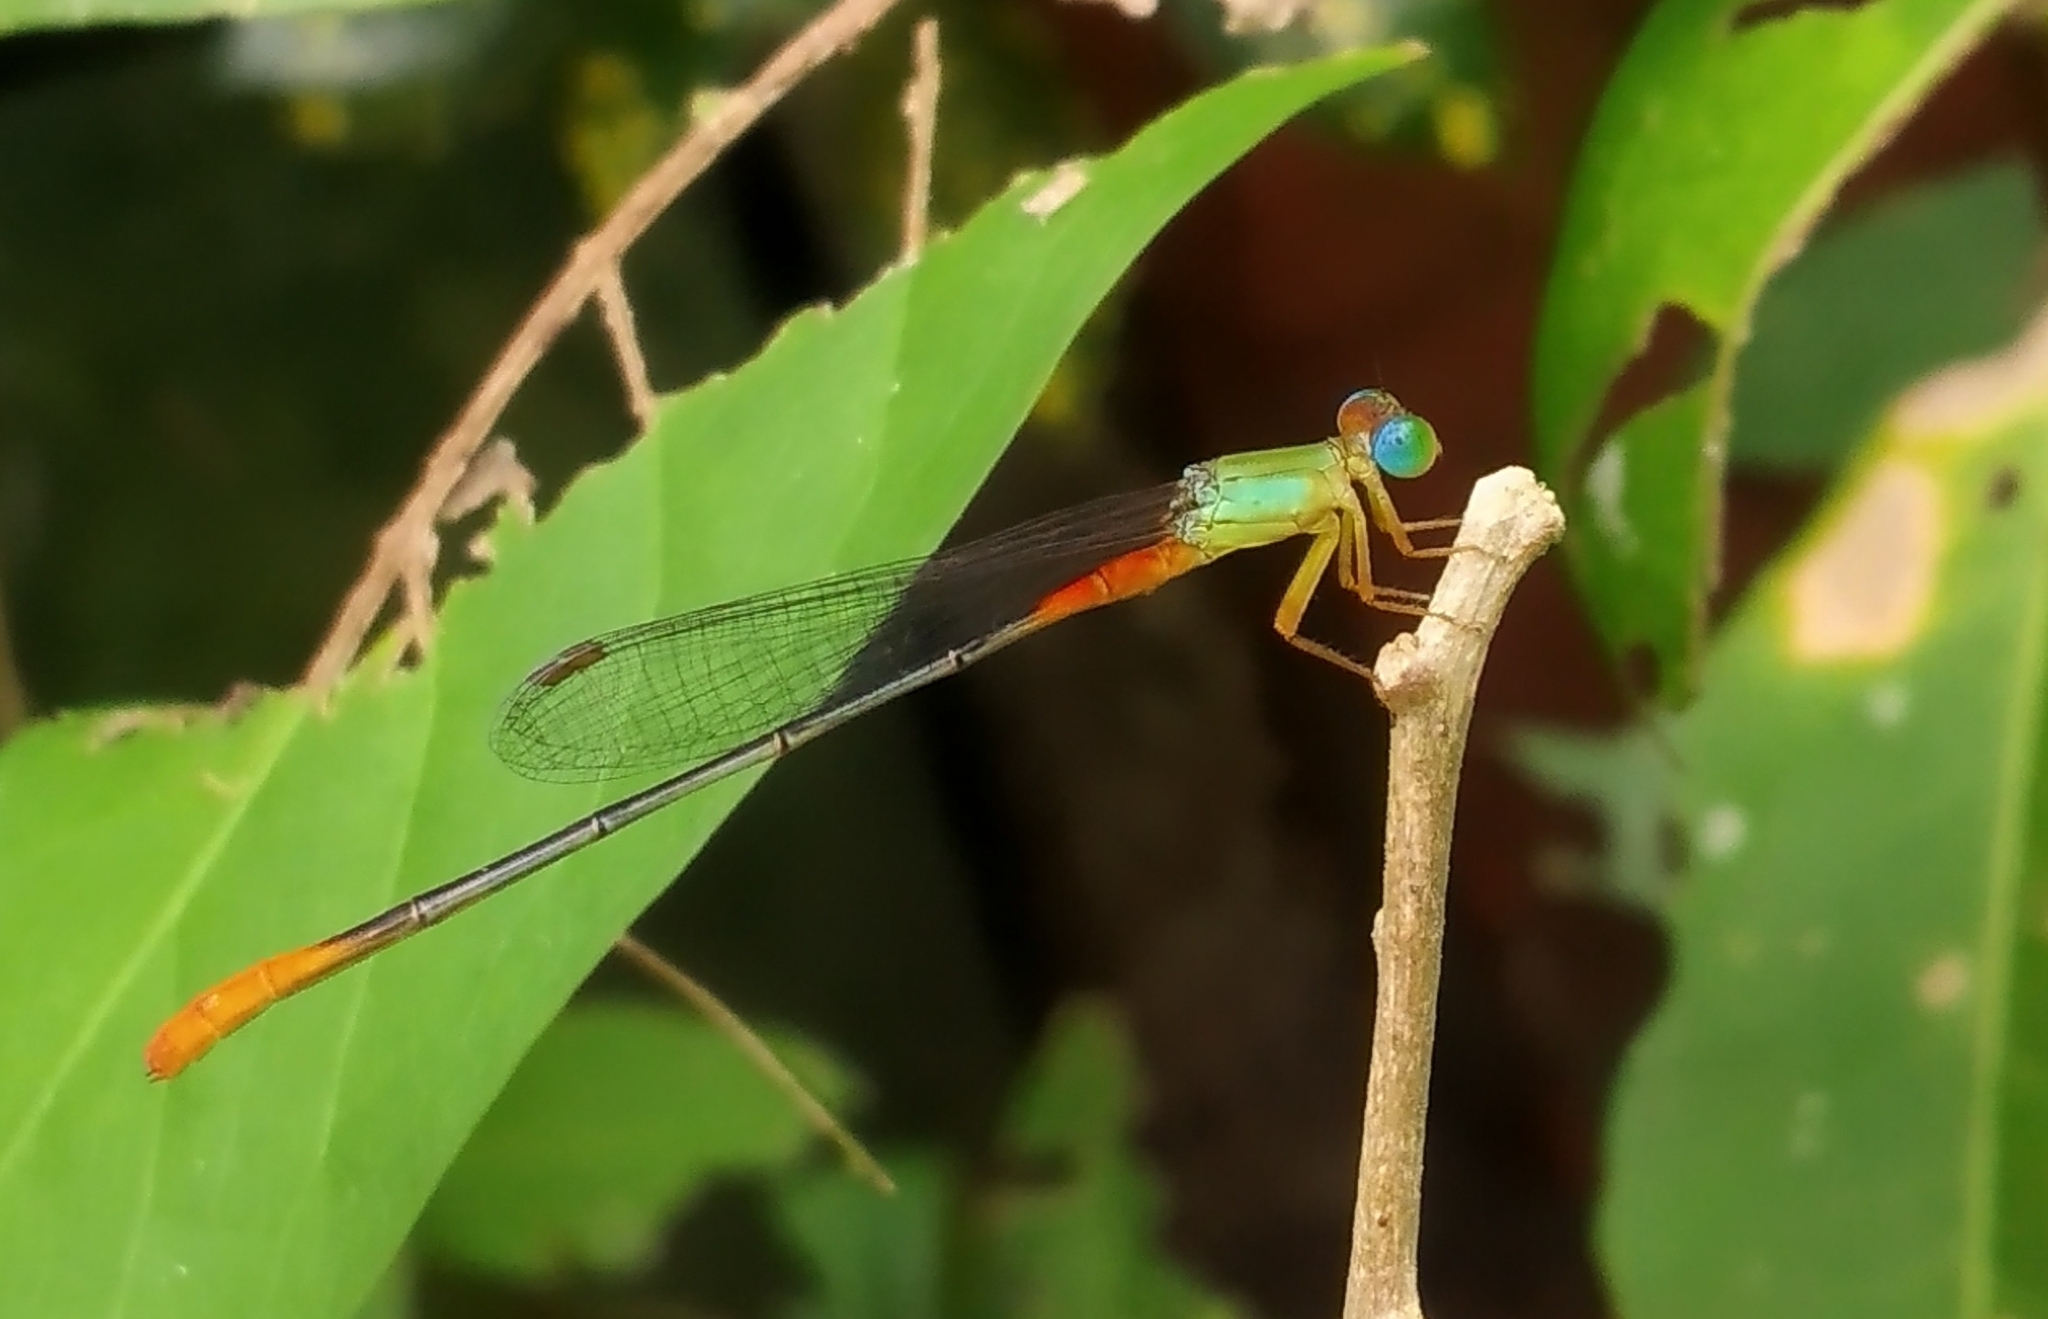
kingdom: Animalia
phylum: Arthropoda
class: Insecta
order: Odonata
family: Coenagrionidae
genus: Ceriagrion
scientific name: Ceriagrion cerinorubellum
